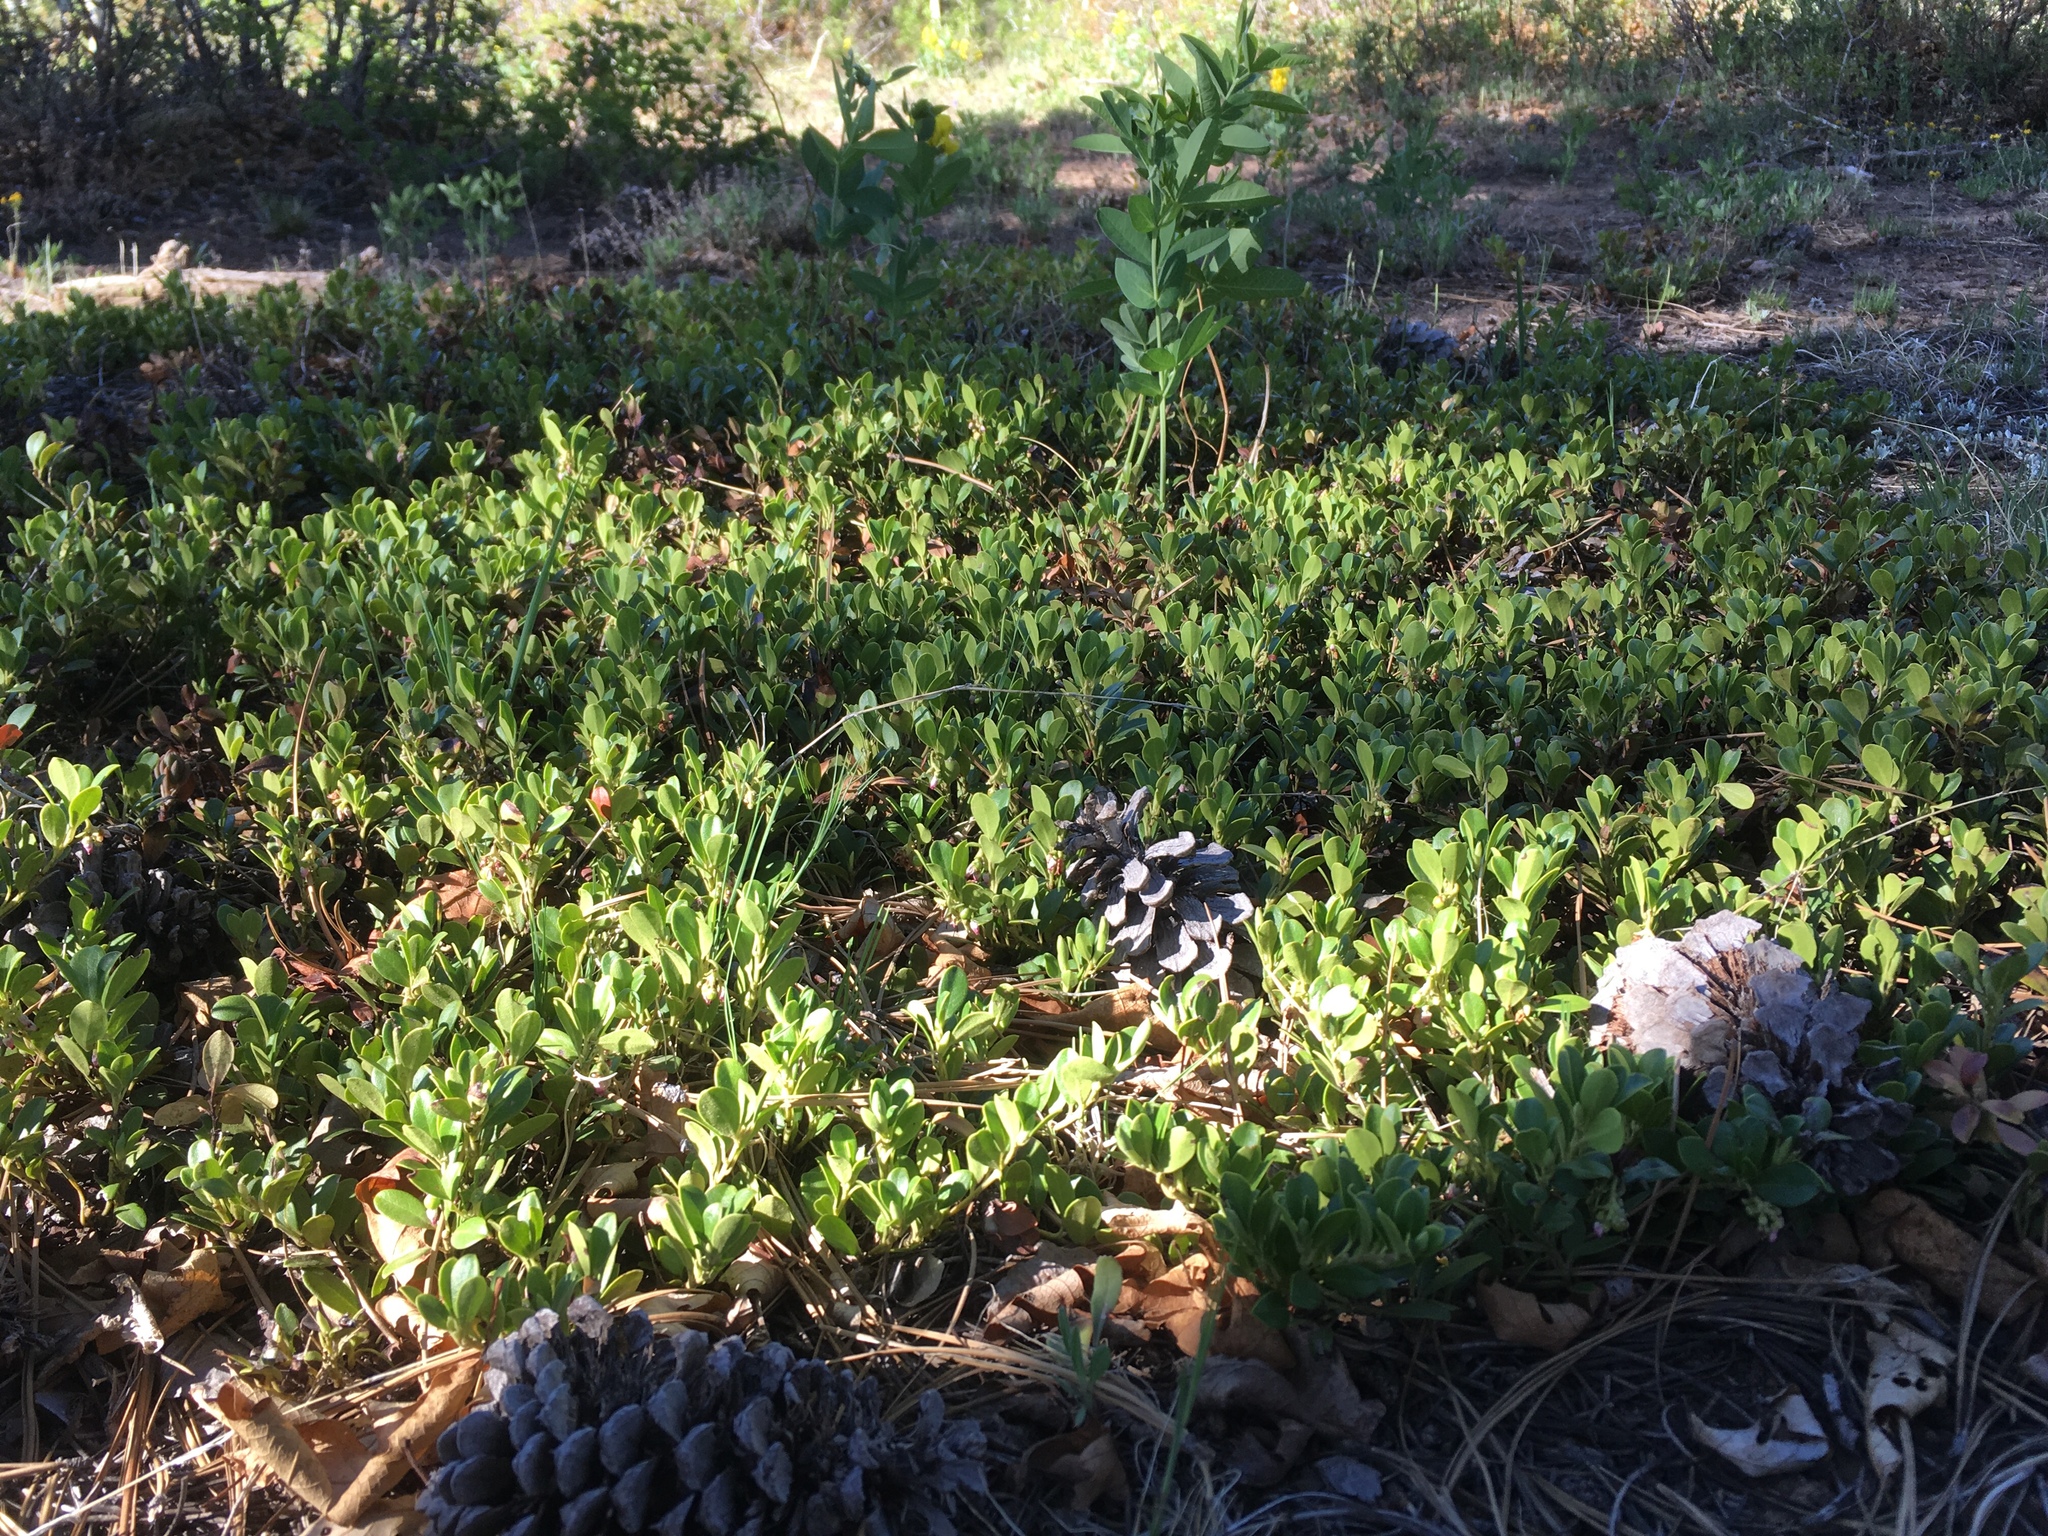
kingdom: Plantae
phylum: Tracheophyta
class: Magnoliopsida
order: Ericales
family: Ericaceae
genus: Arctostaphylos
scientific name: Arctostaphylos uva-ursi
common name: Bearberry
